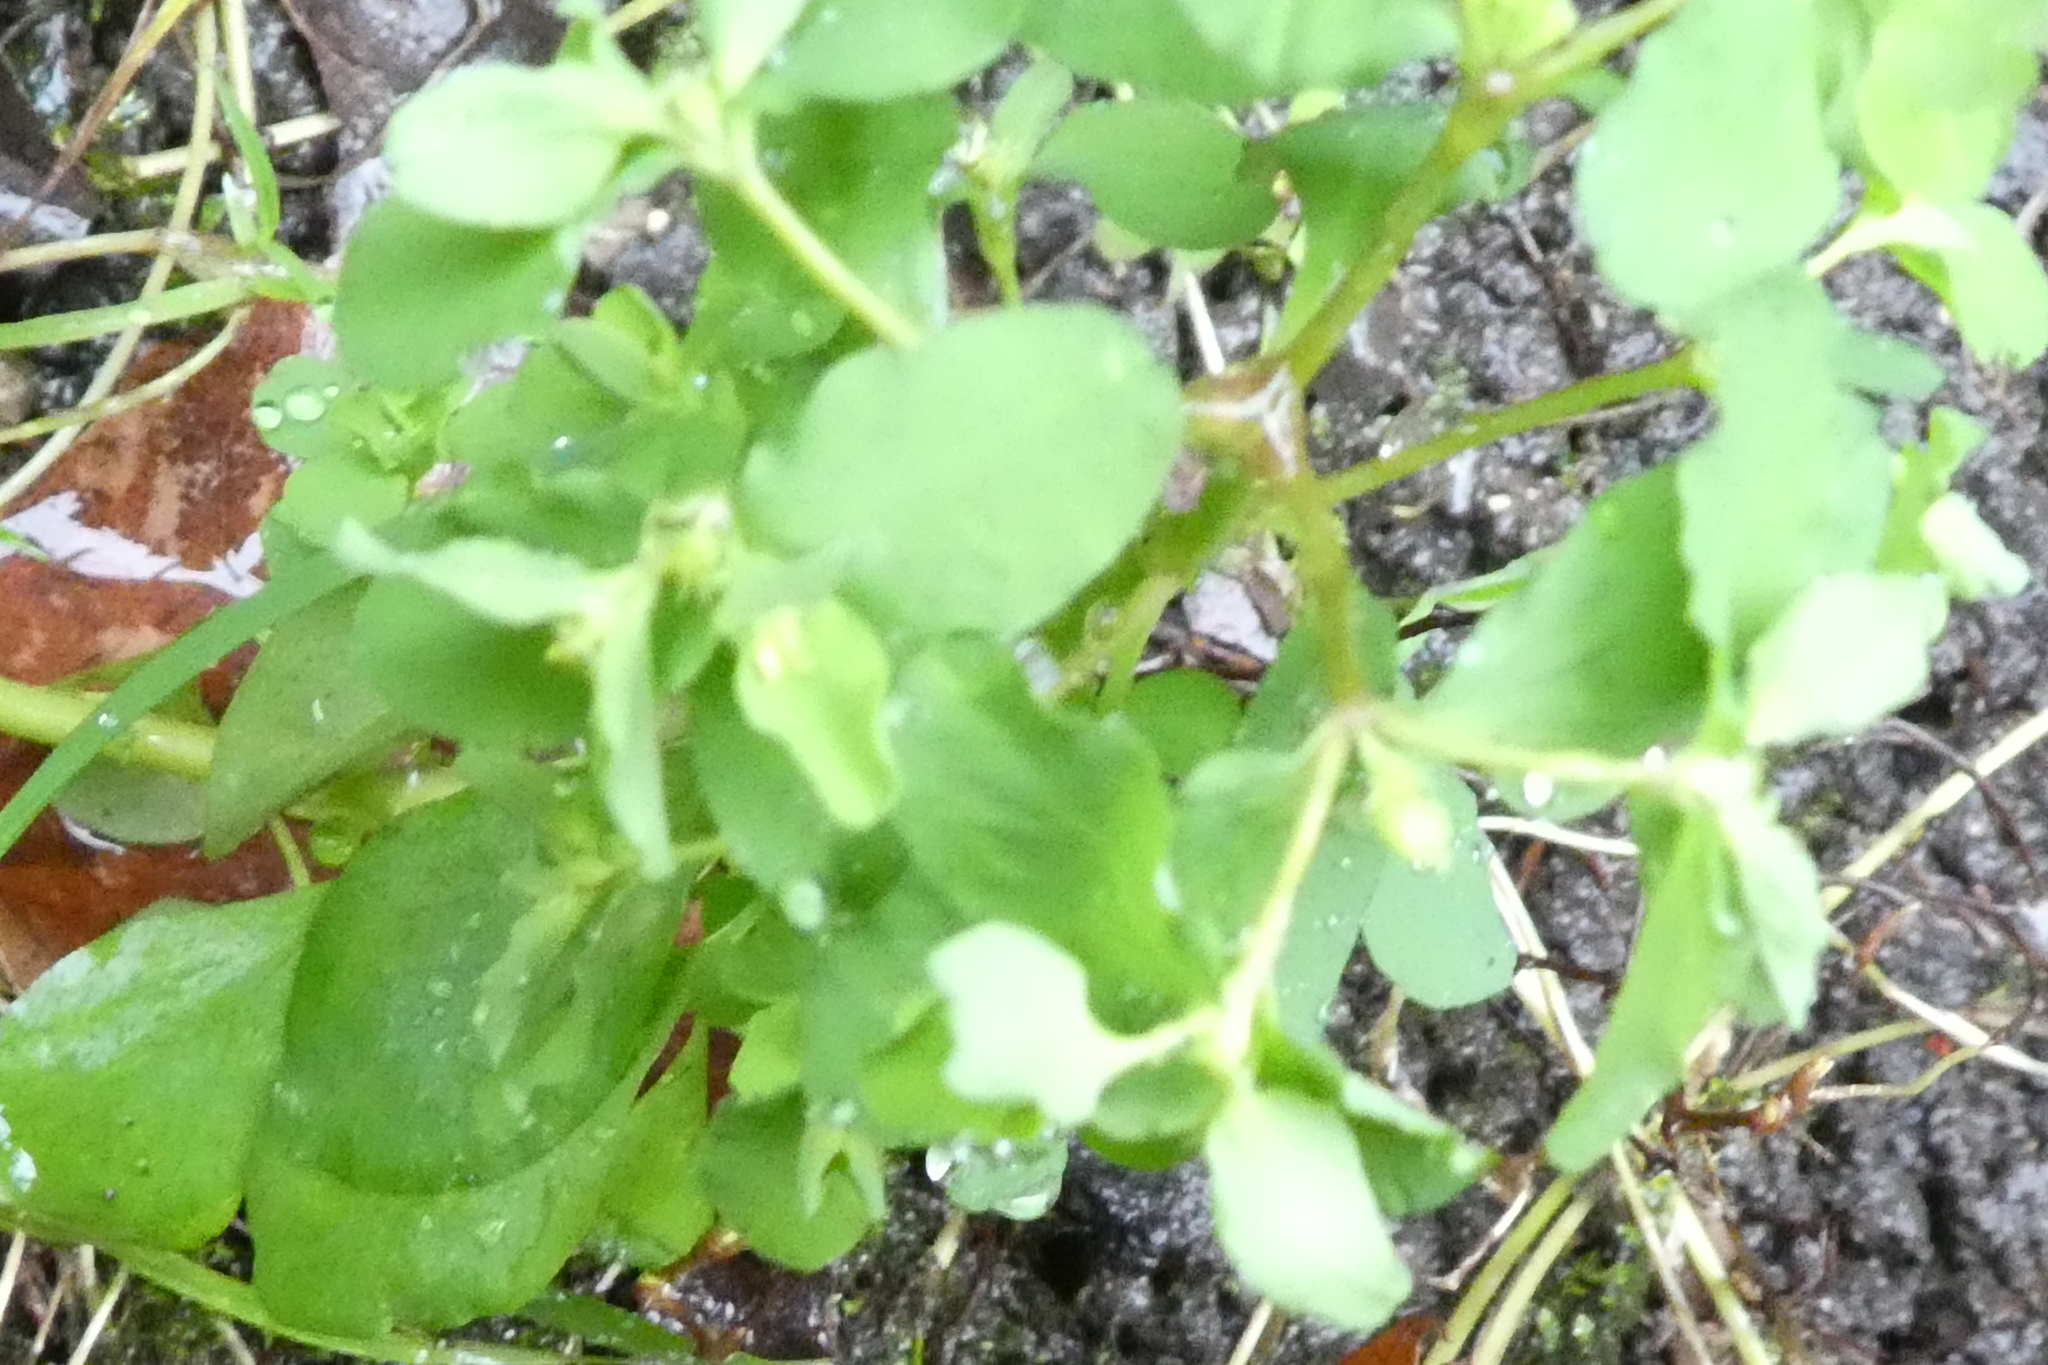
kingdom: Plantae
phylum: Tracheophyta
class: Magnoliopsida
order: Malpighiales
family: Euphorbiaceae
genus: Euphorbia
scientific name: Euphorbia peplus
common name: Petty spurge
